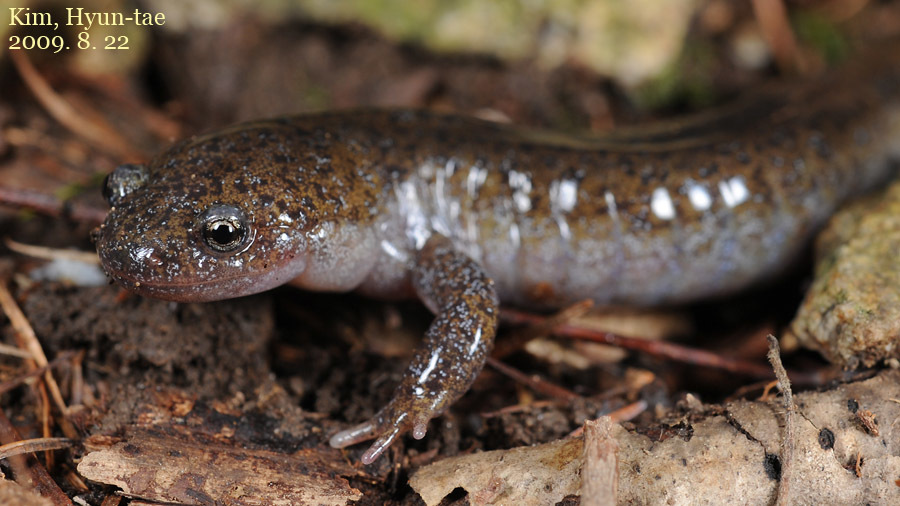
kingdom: Animalia
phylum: Chordata
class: Amphibia
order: Caudata
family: Hynobiidae
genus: Hynobius
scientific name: Hynobius leechii
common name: Gensan salamander
